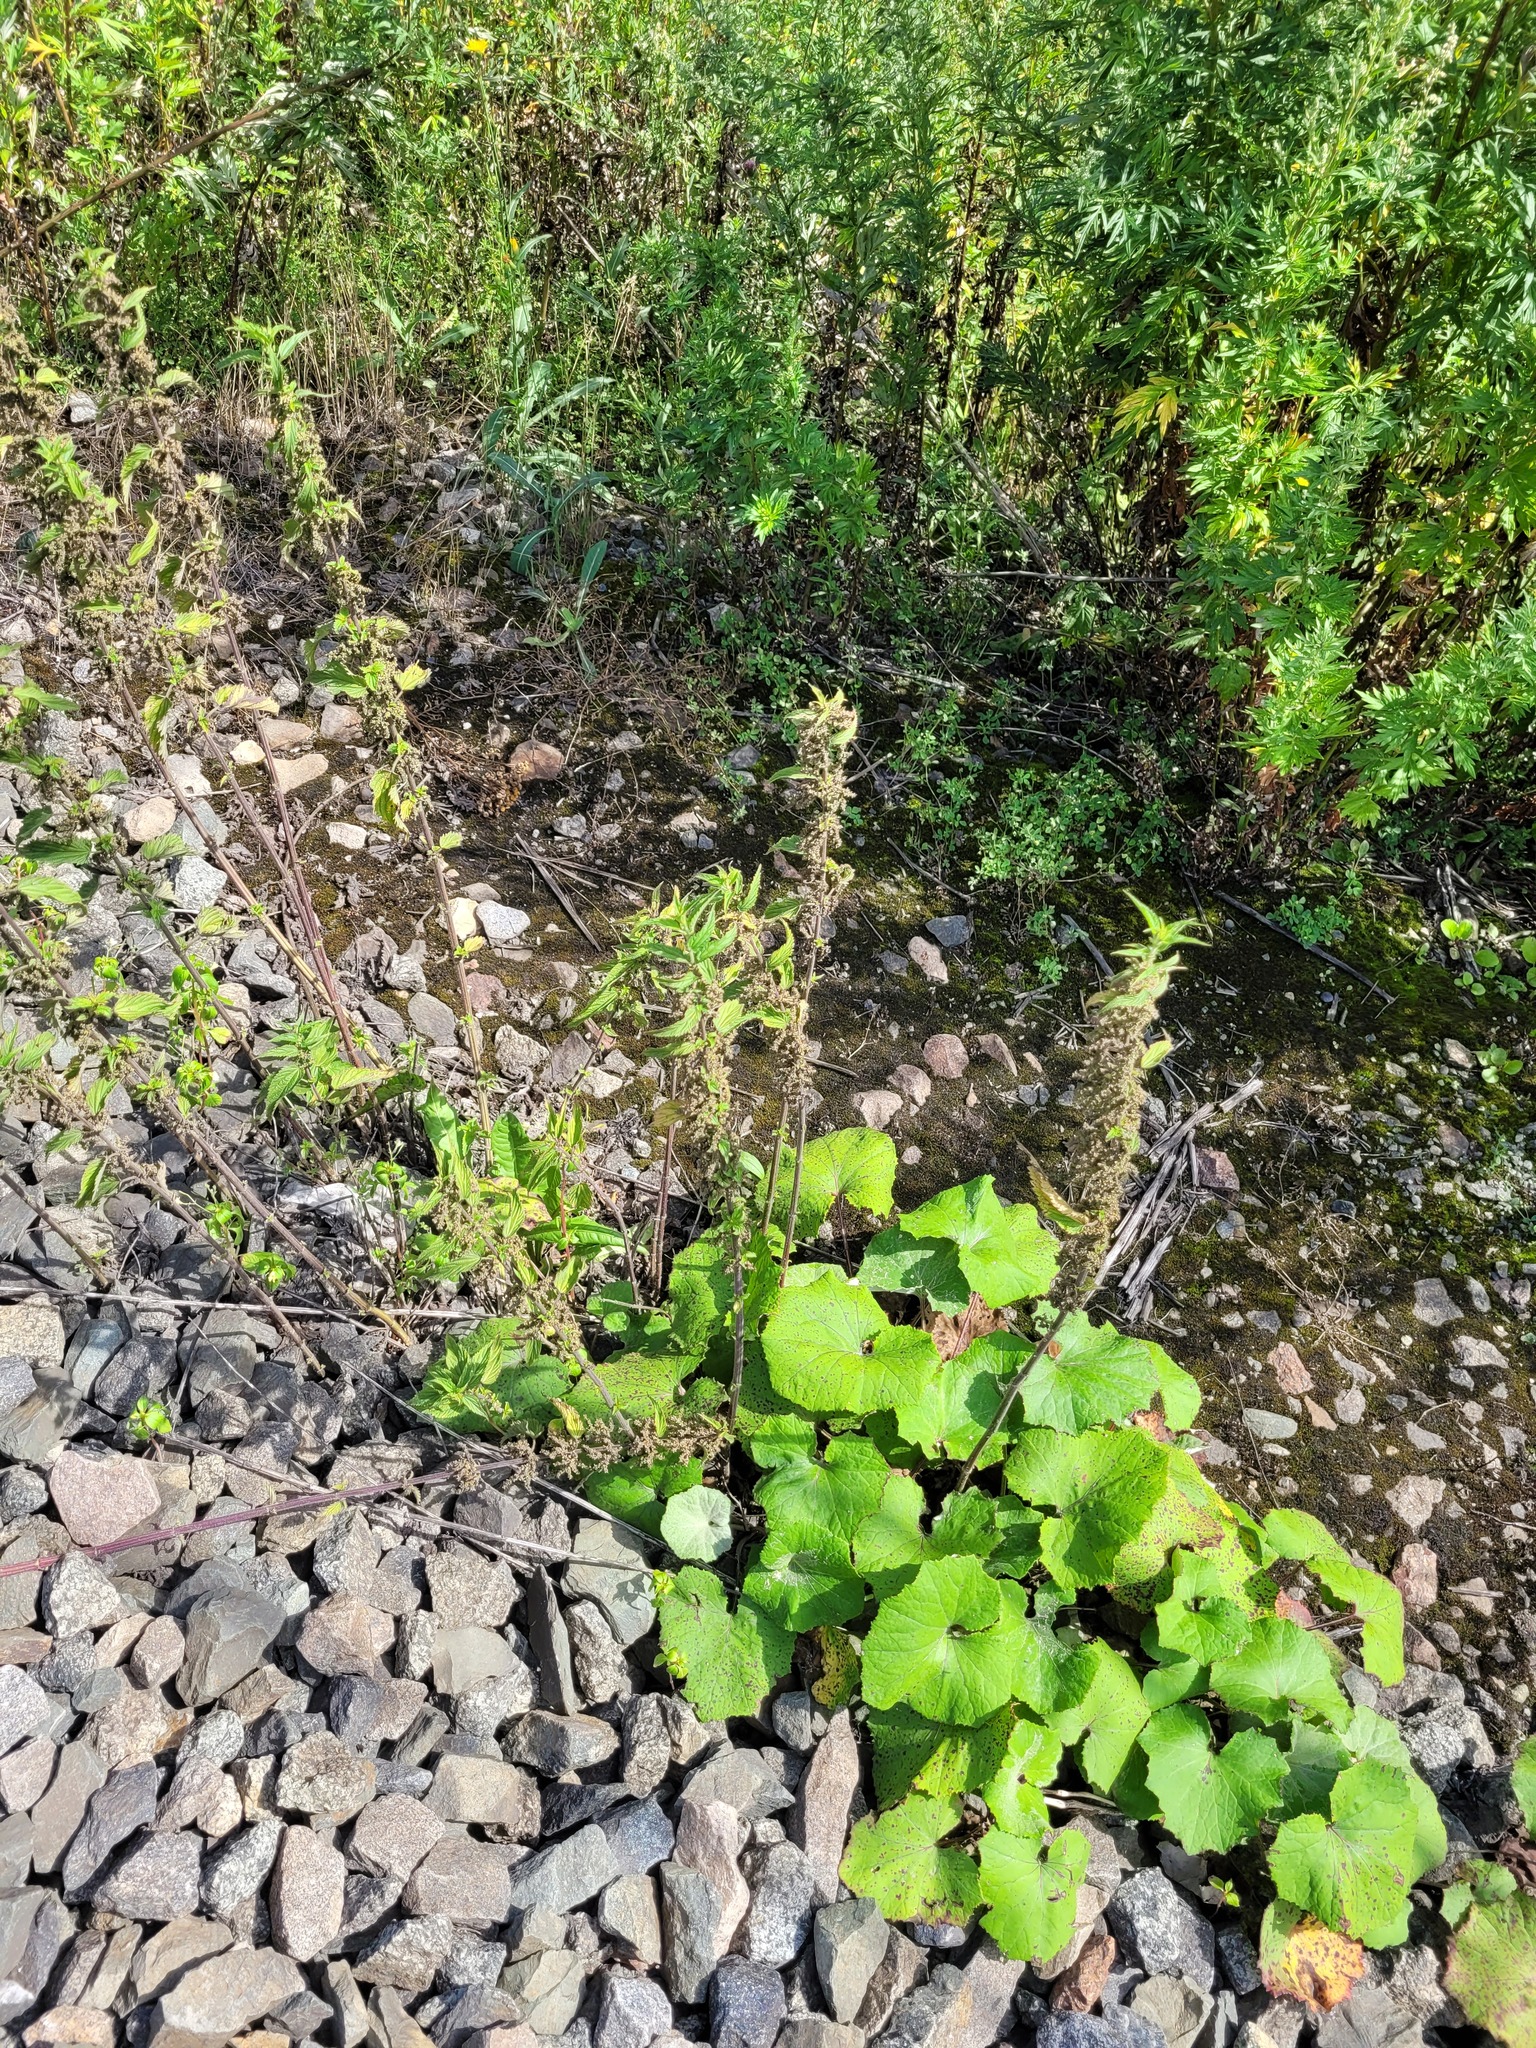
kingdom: Plantae
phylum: Tracheophyta
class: Magnoliopsida
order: Rosales
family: Urticaceae
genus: Urtica
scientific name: Urtica dioica
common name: Common nettle
